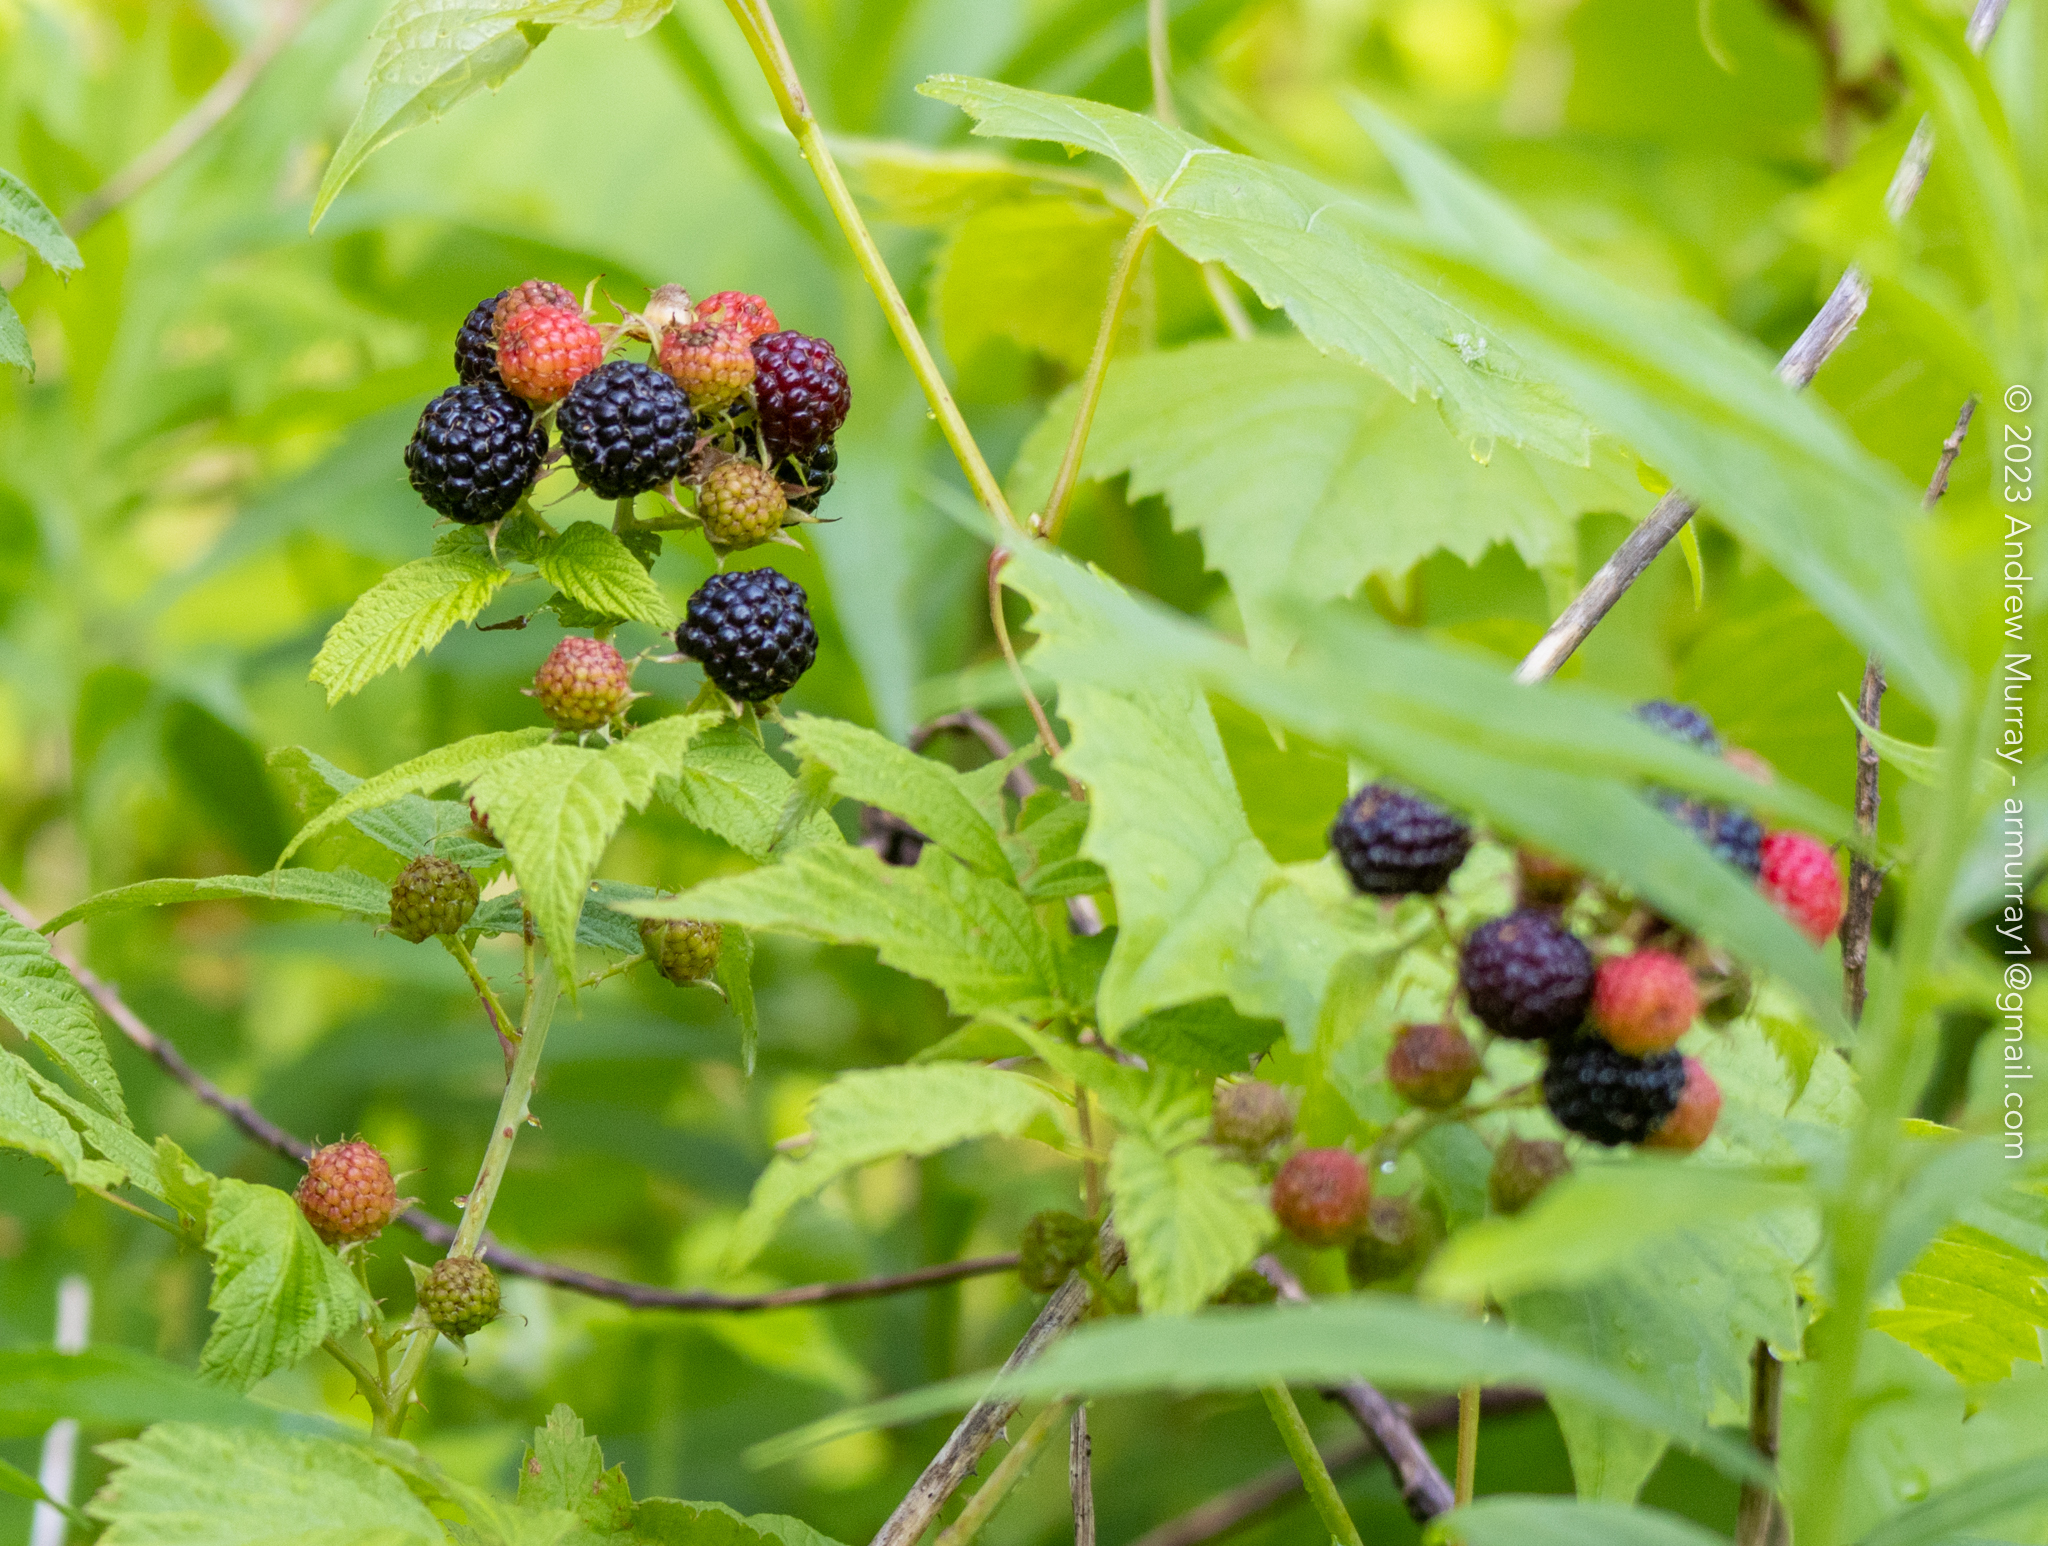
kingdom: Plantae
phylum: Tracheophyta
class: Magnoliopsida
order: Rosales
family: Rosaceae
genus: Rubus
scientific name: Rubus occidentalis
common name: Black raspberry
